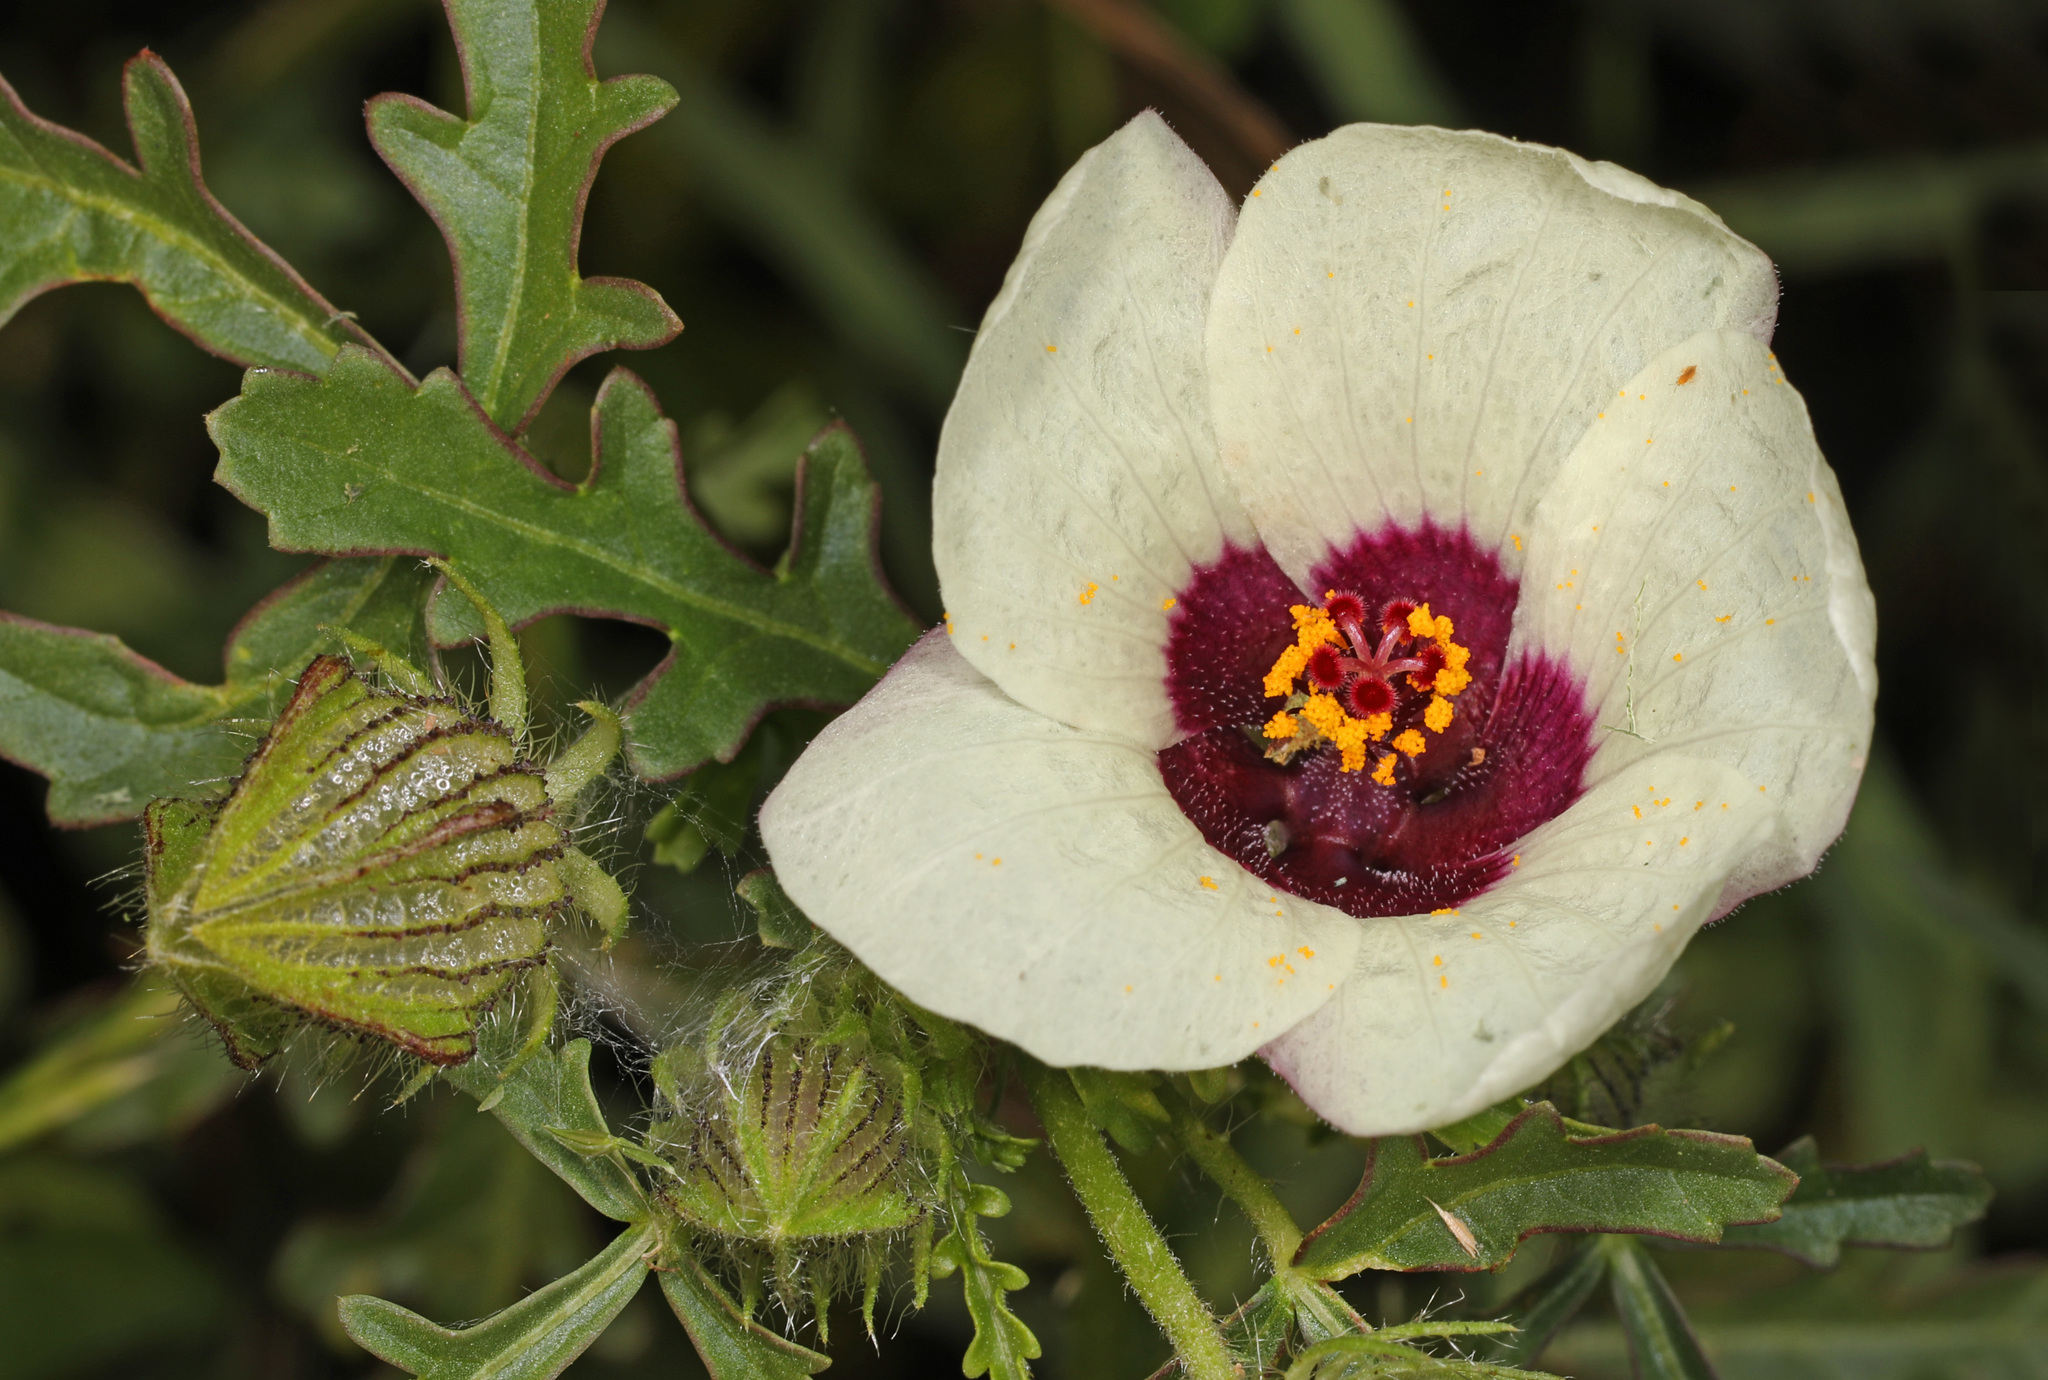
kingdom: Plantae
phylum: Tracheophyta
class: Magnoliopsida
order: Malvales
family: Malvaceae
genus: Hibiscus
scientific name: Hibiscus trionum
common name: Bladder ketmia
